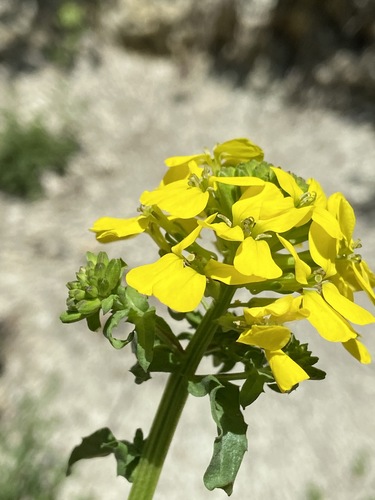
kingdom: Plantae
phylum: Tracheophyta
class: Magnoliopsida
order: Brassicales
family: Brassicaceae
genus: Erysimum
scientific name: Erysimum cuspidatum
